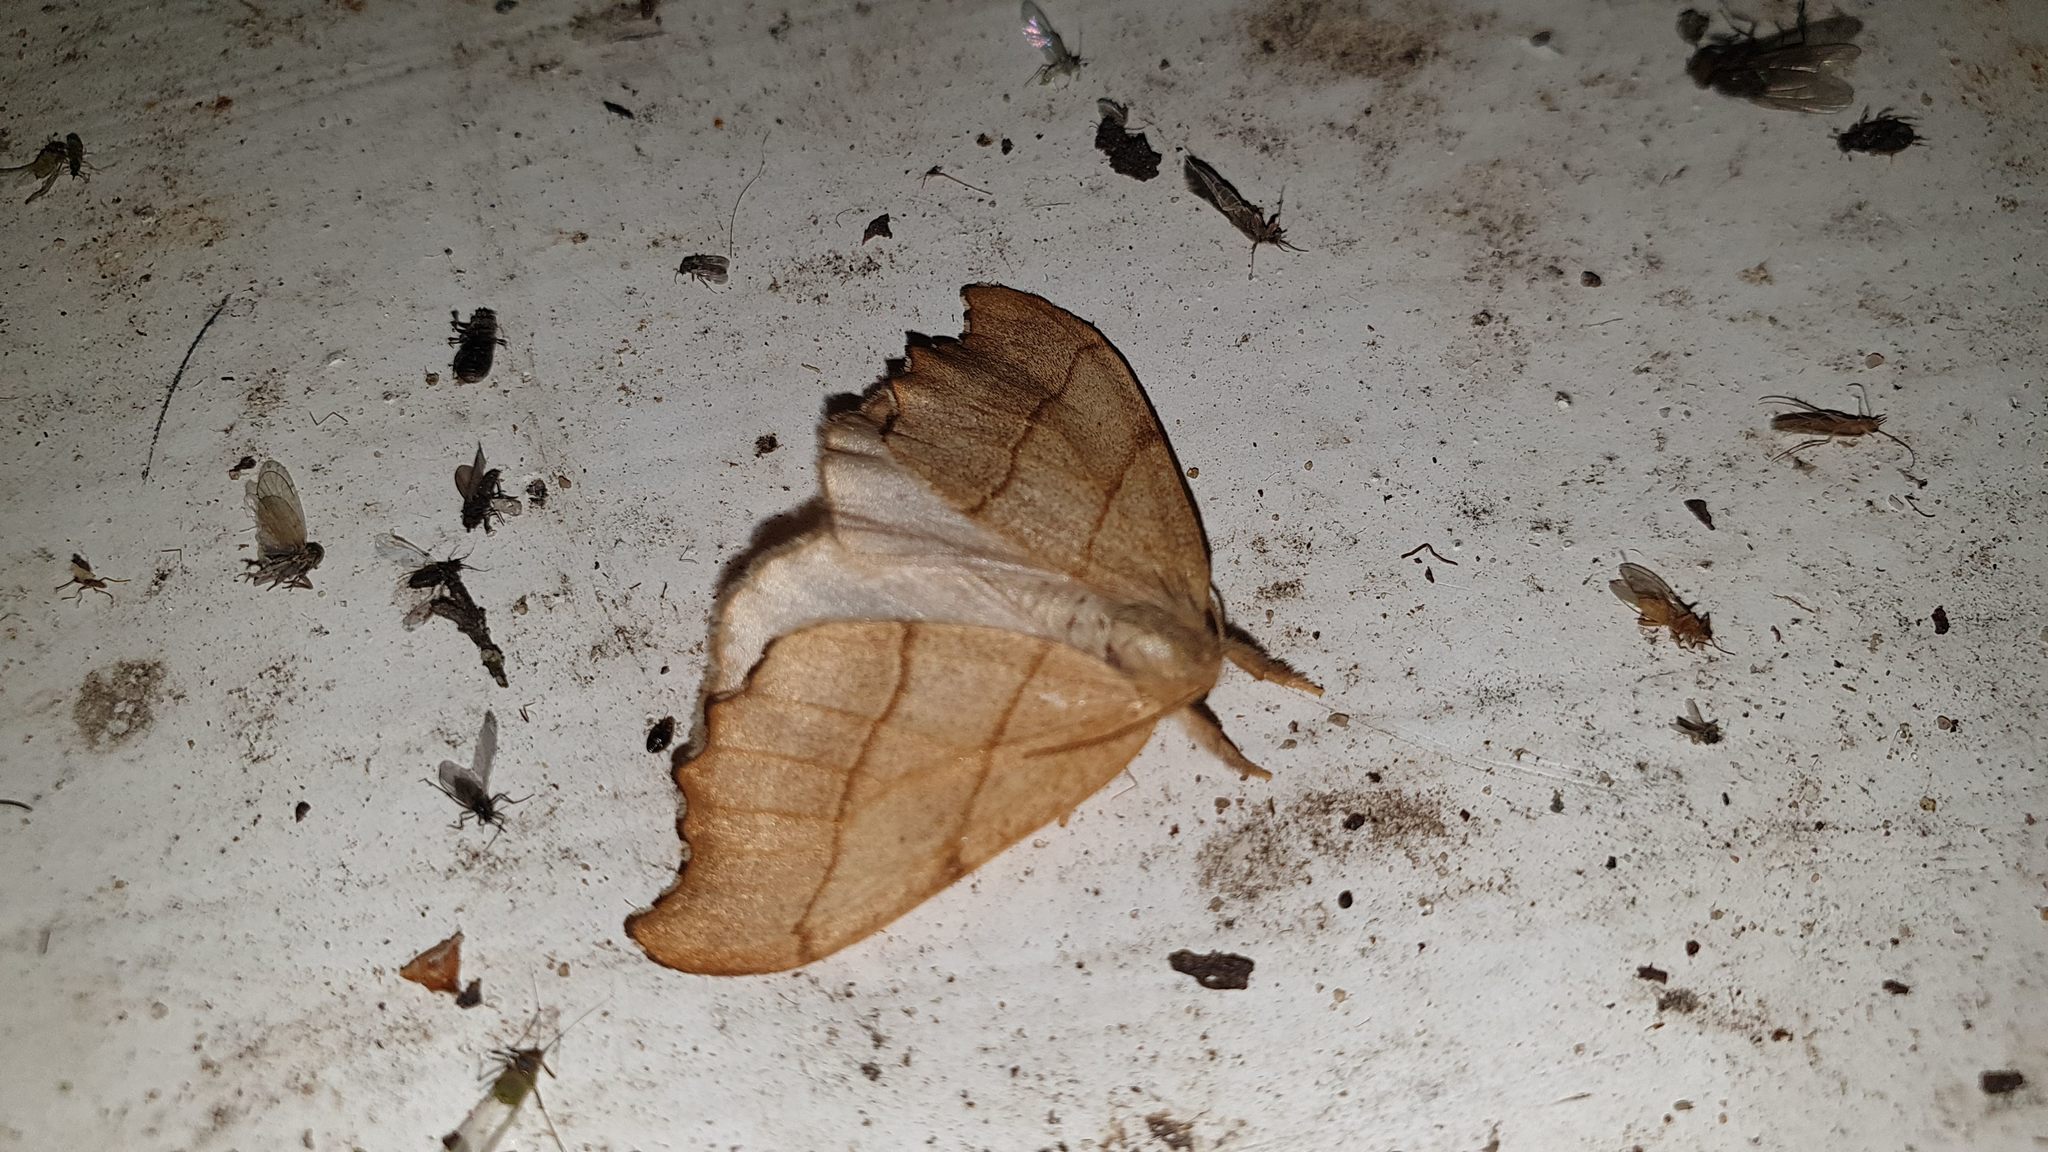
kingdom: Animalia
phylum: Arthropoda
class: Insecta
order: Lepidoptera
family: Drepanidae
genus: Falcaria
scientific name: Falcaria lacertinaria
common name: Scalloped hook-tip
